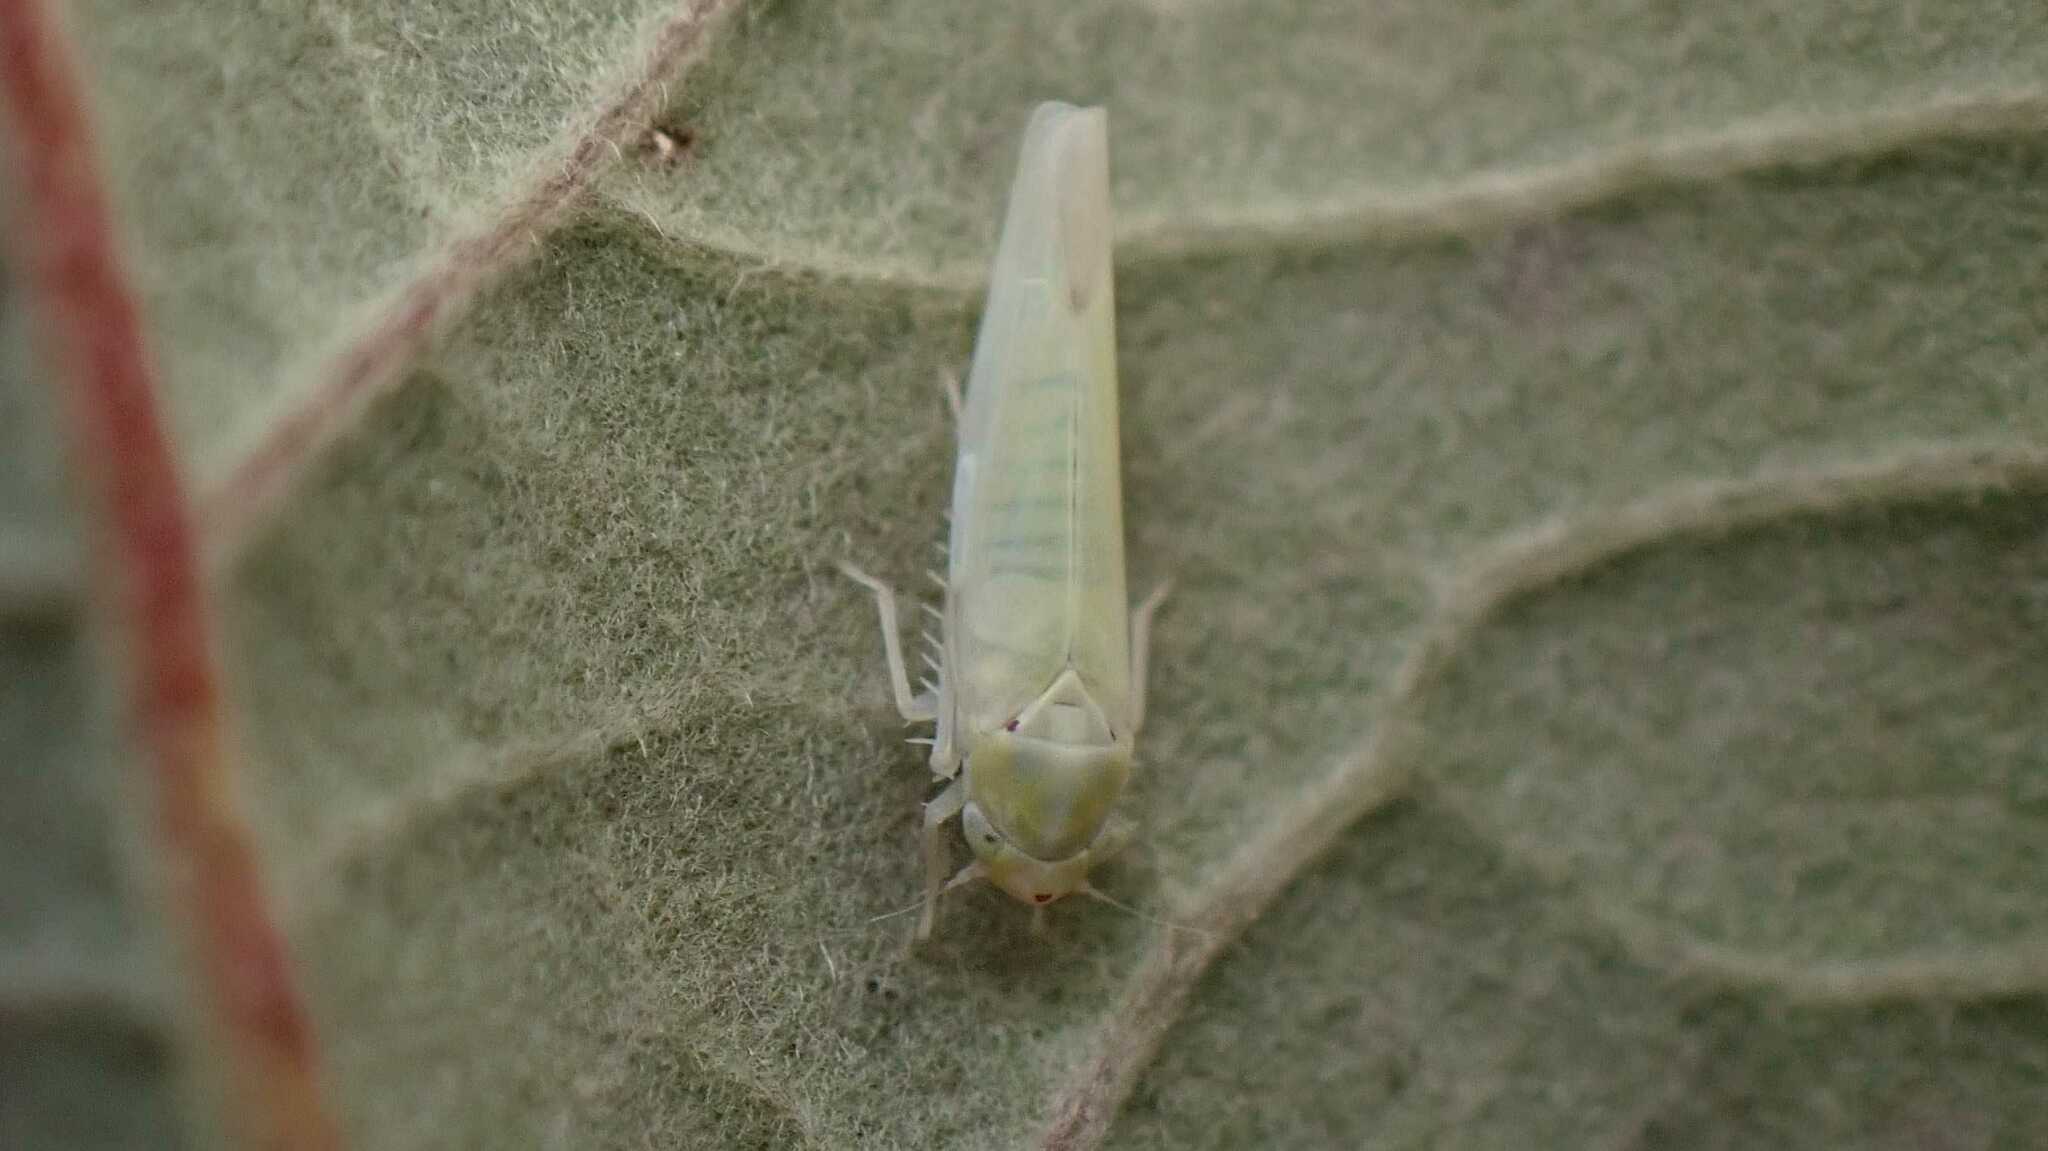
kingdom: Animalia
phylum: Arthropoda
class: Insecta
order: Hemiptera
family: Cicadellidae
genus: Zygina
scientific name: Zygina nivea
